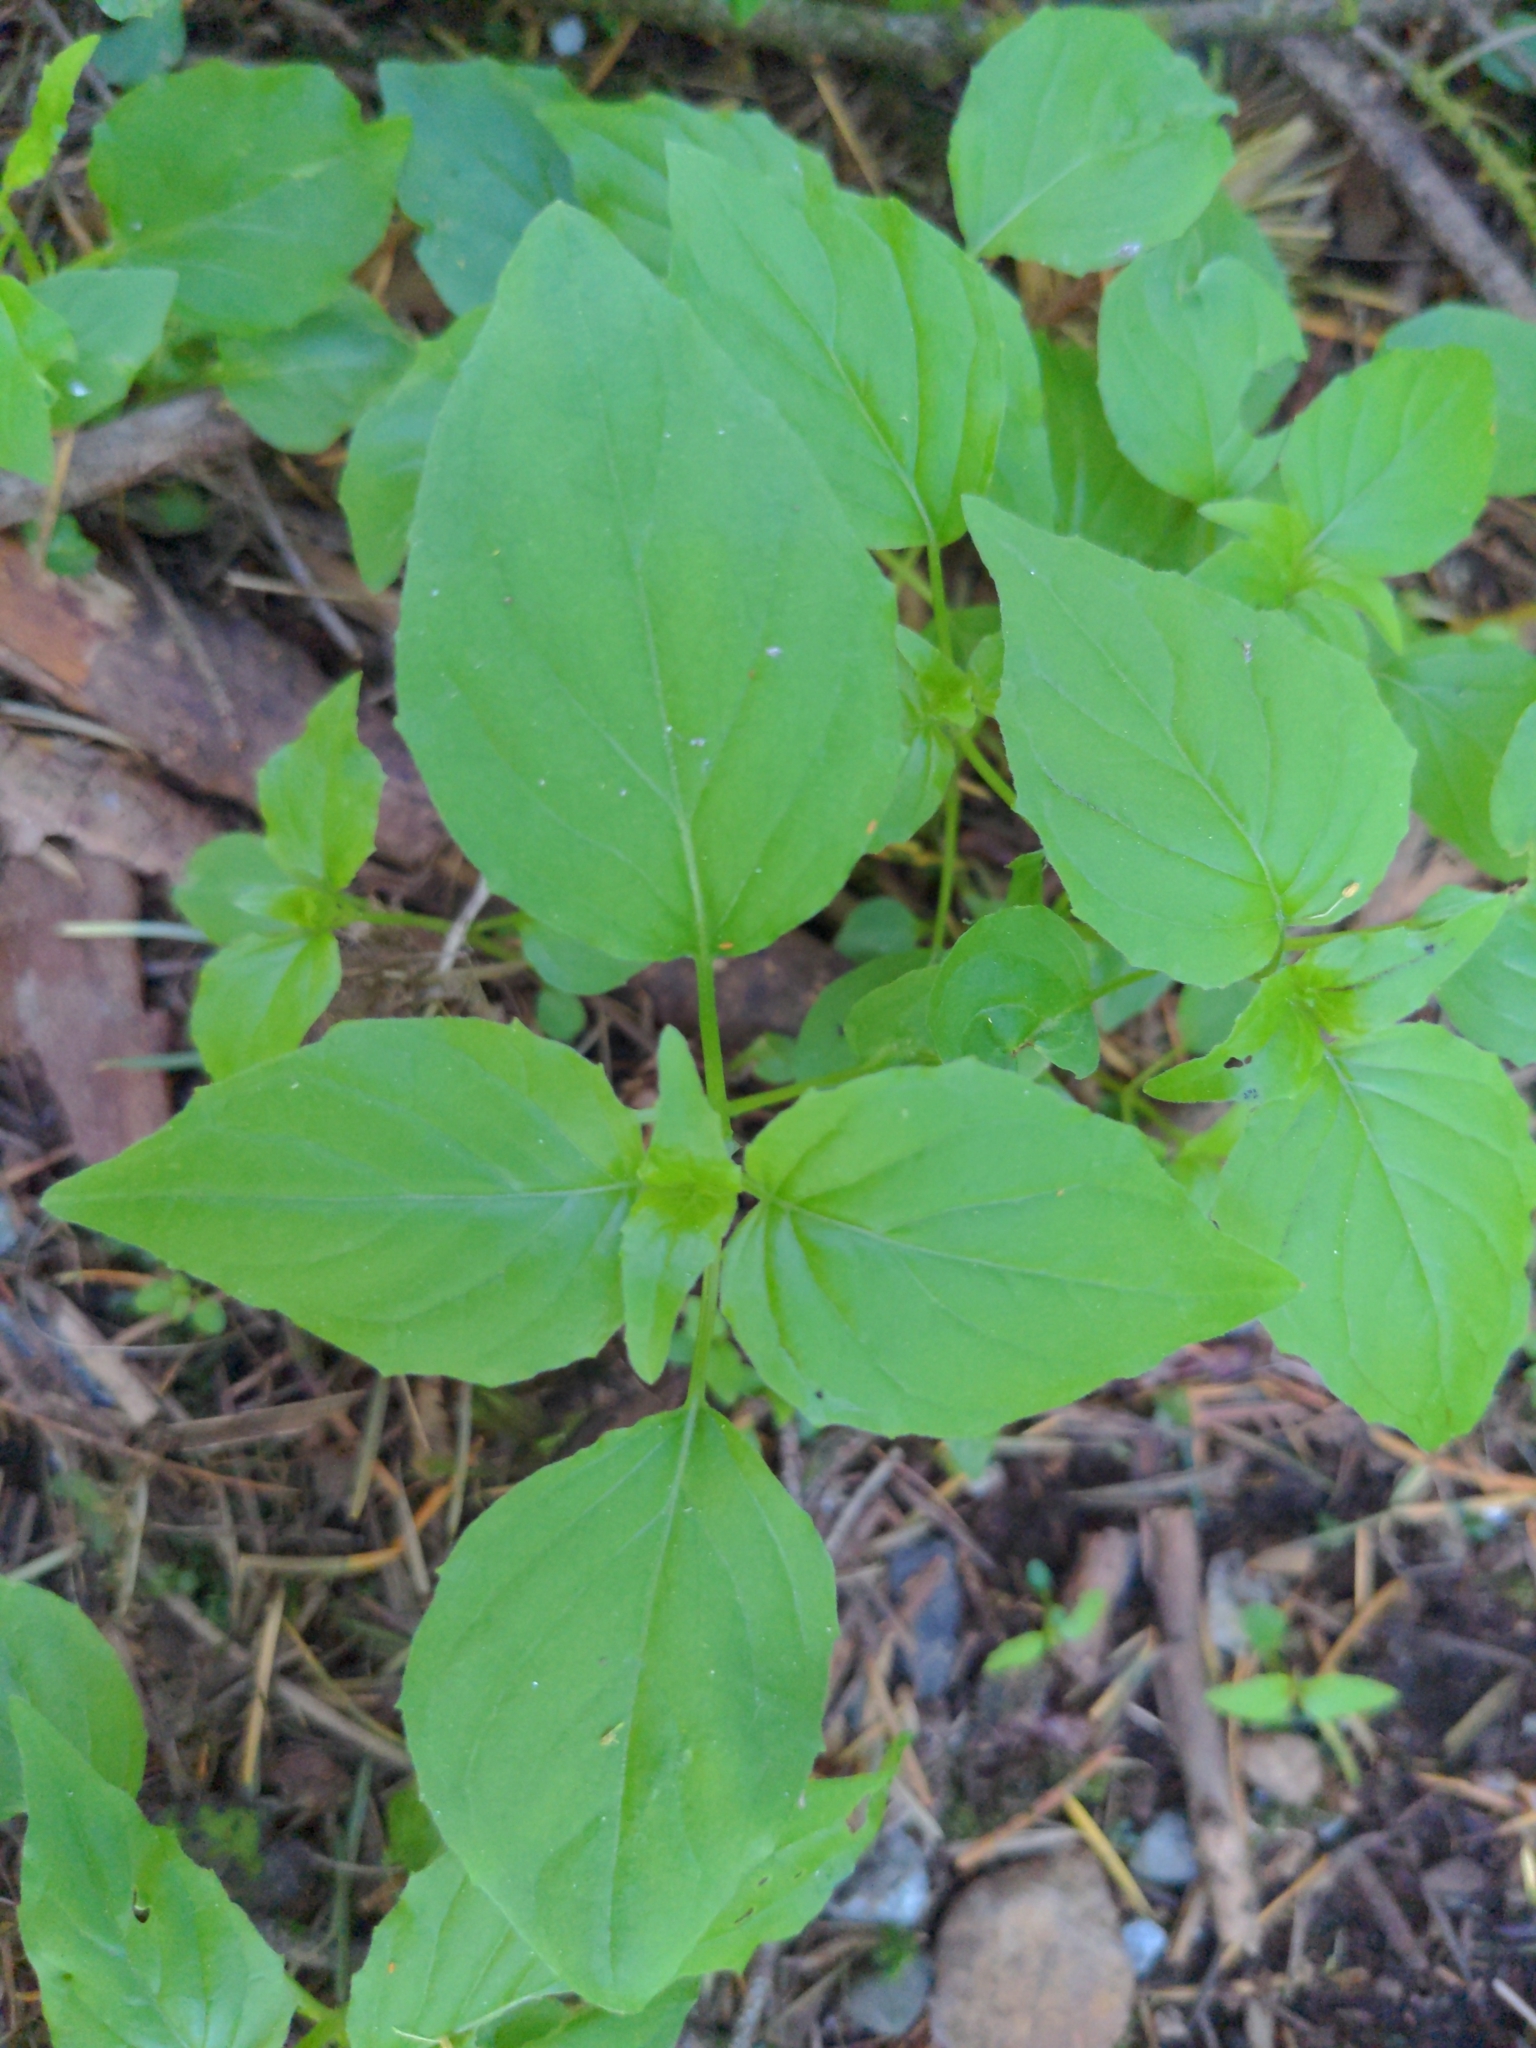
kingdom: Plantae
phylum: Tracheophyta
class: Magnoliopsida
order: Myrtales
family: Onagraceae
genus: Circaea
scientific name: Circaea alpina
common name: Alpine enchanter's-nightshade
